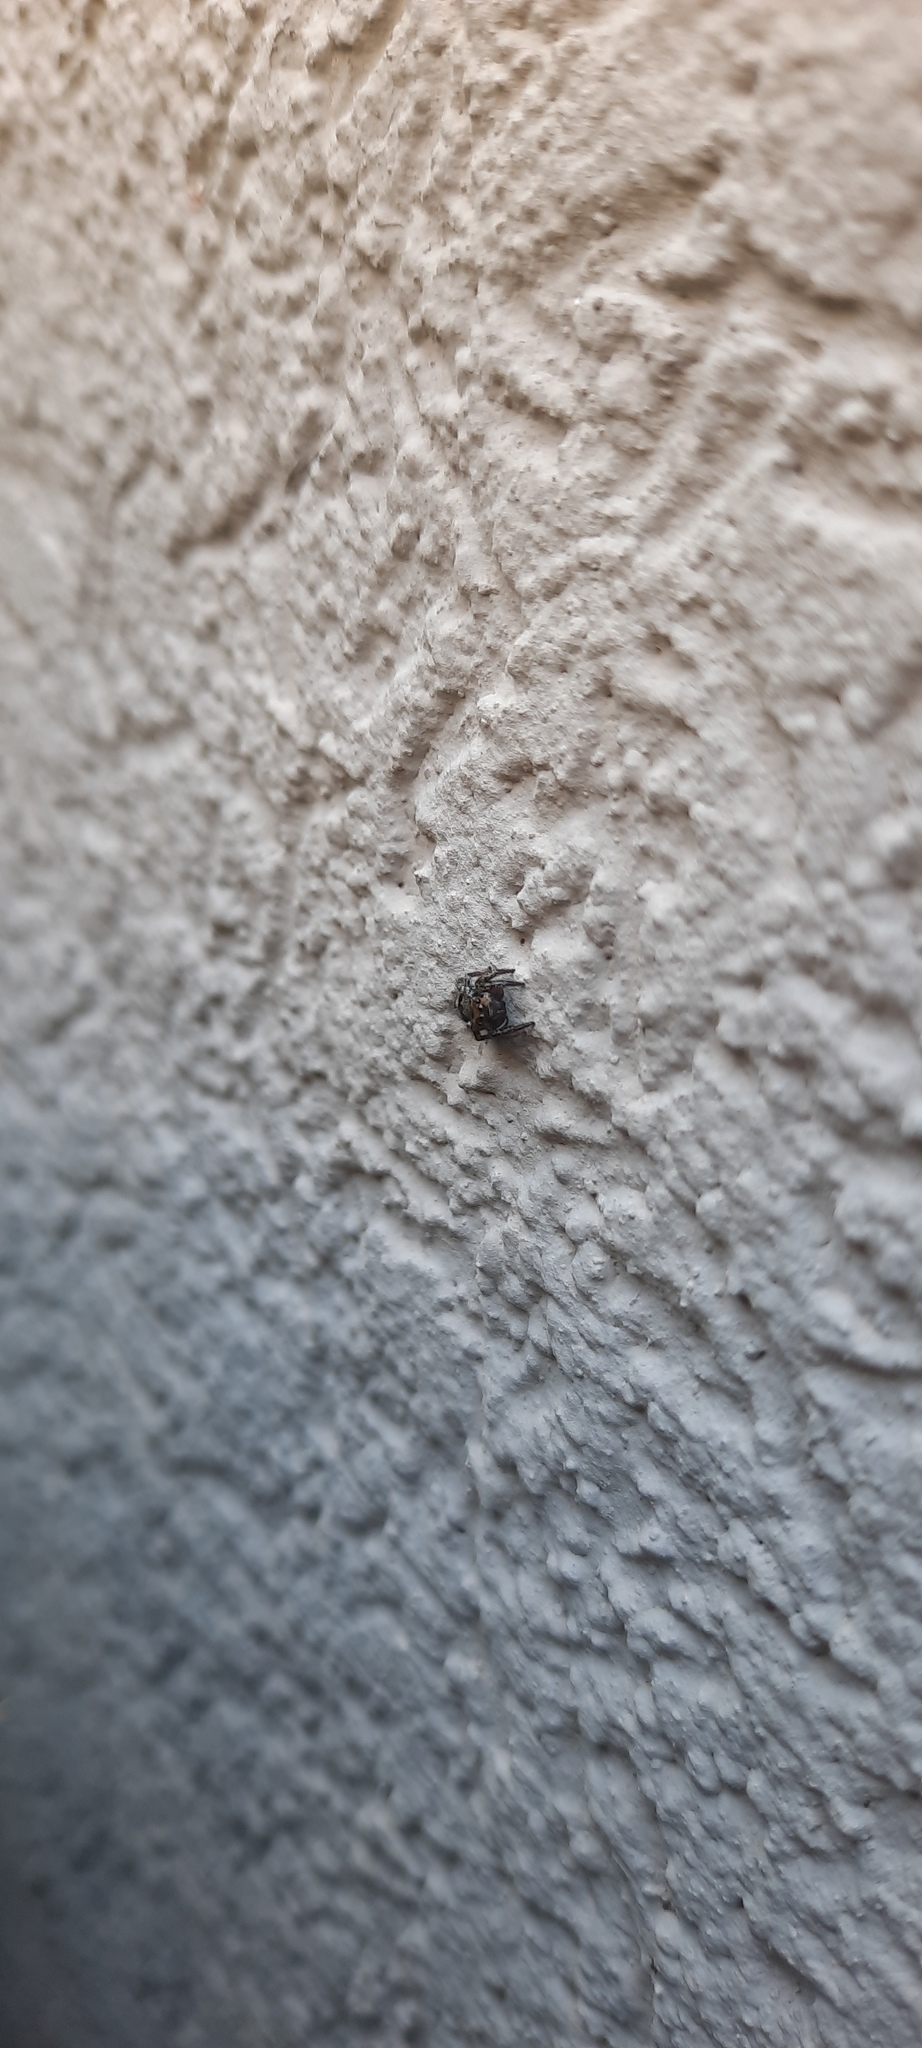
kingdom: Animalia
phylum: Arthropoda
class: Arachnida
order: Araneae
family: Salticidae
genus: Corythalia
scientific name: Corythalia conferta
